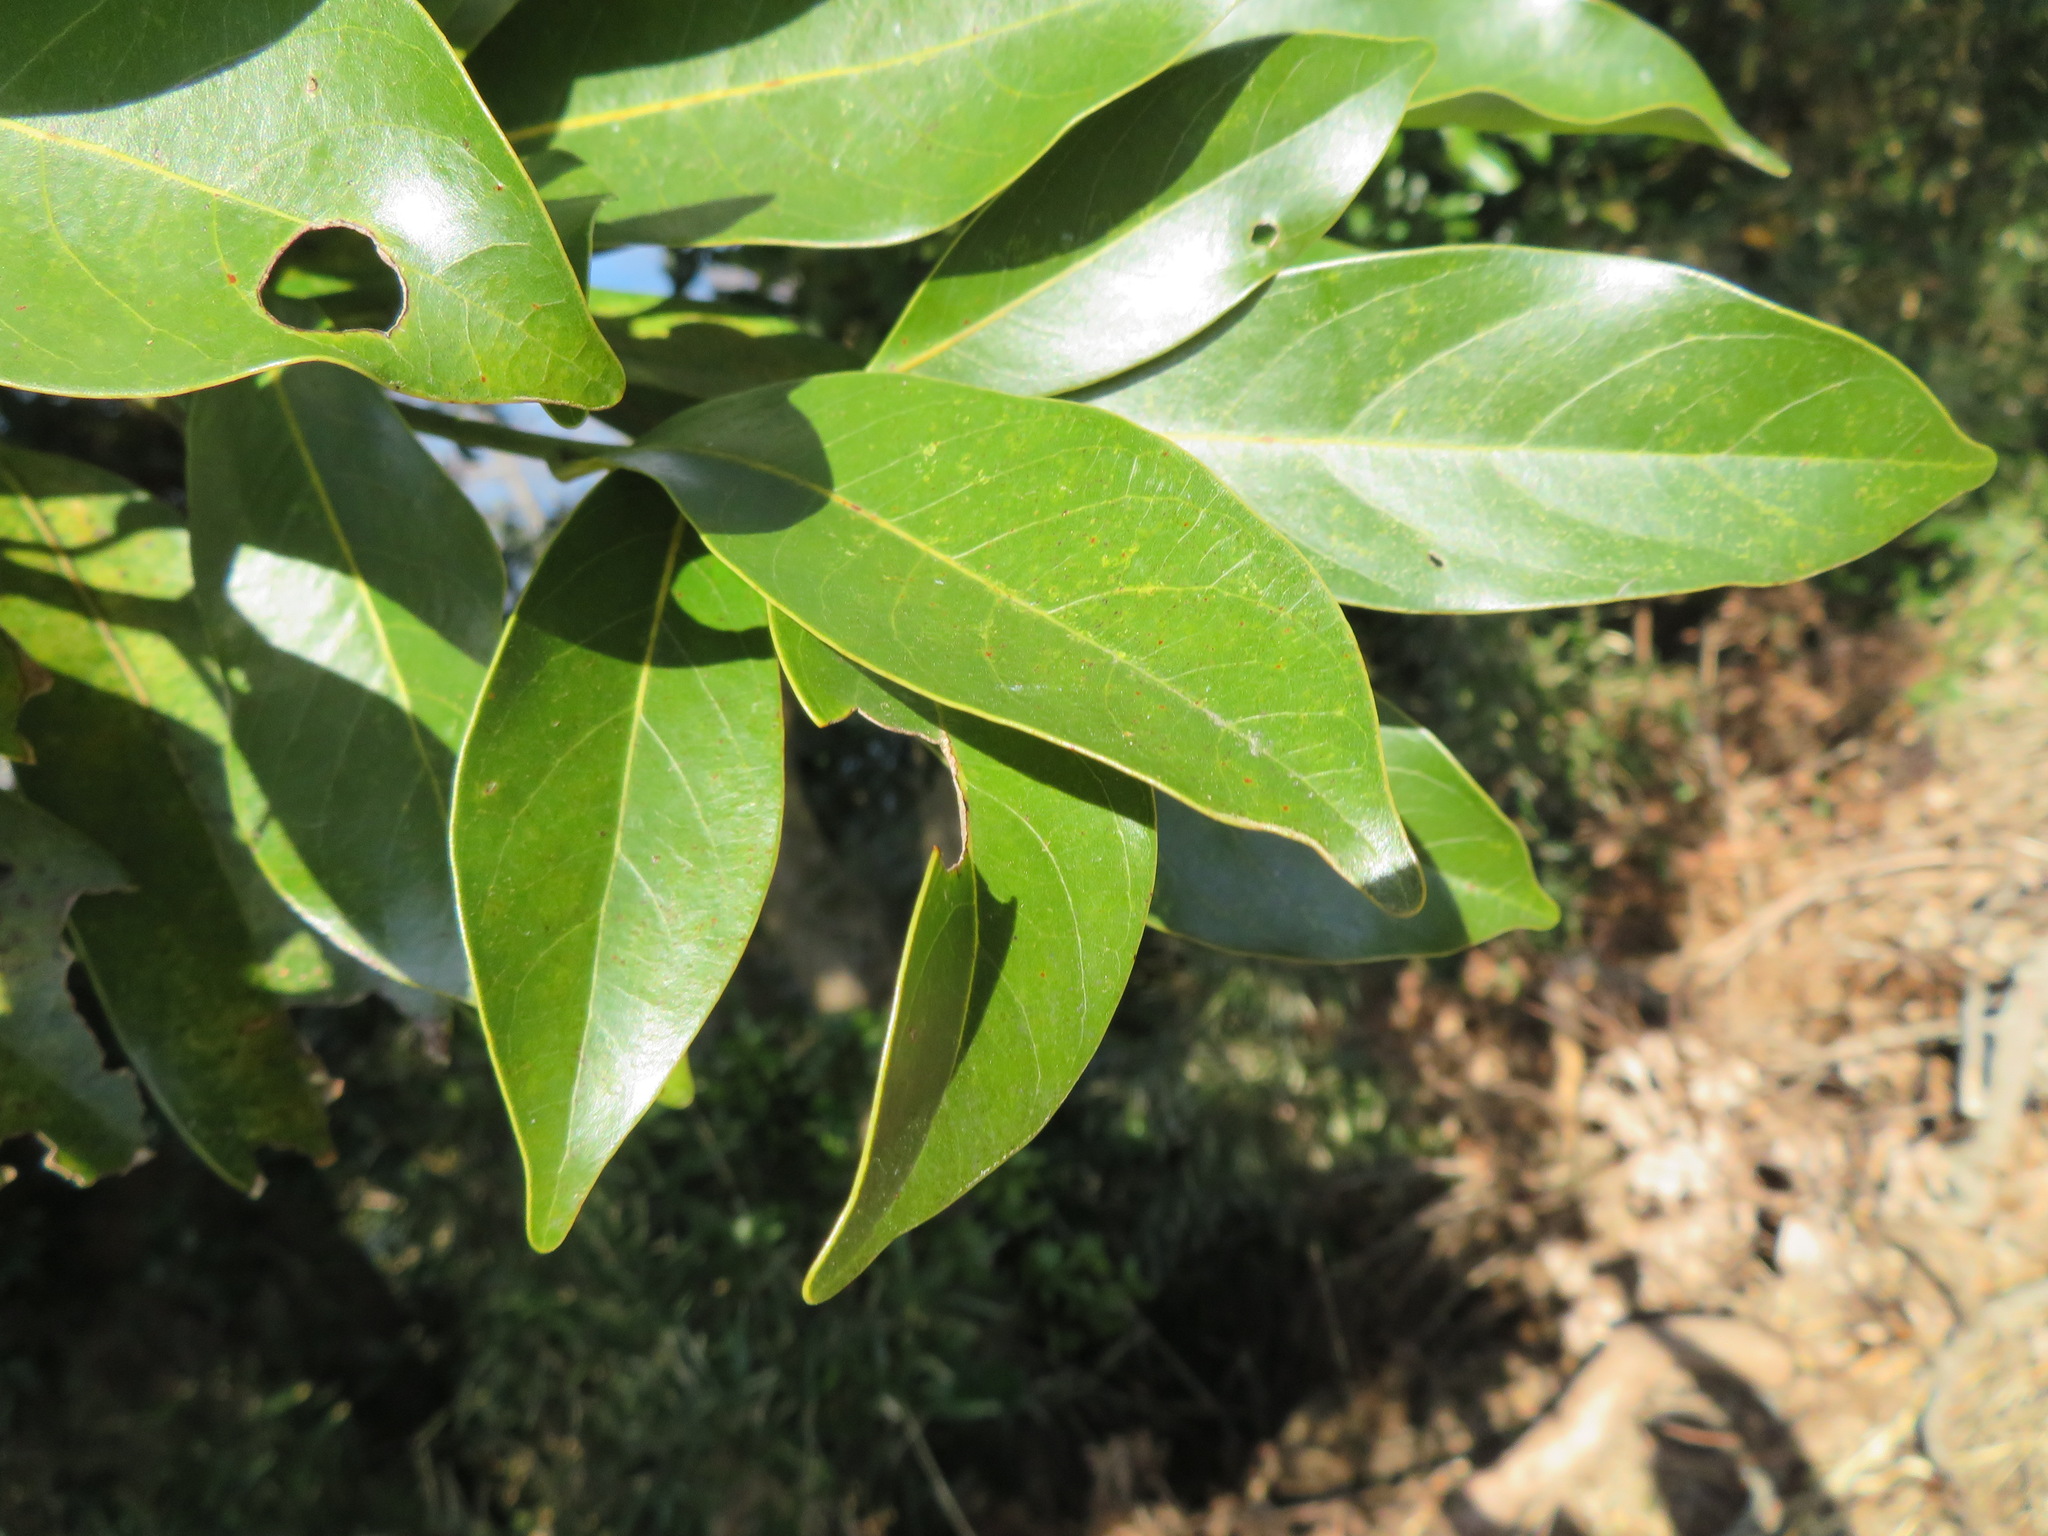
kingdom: Plantae
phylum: Tracheophyta
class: Magnoliopsida
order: Laurales
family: Lauraceae
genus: Machilus
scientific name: Machilus thunbergii
